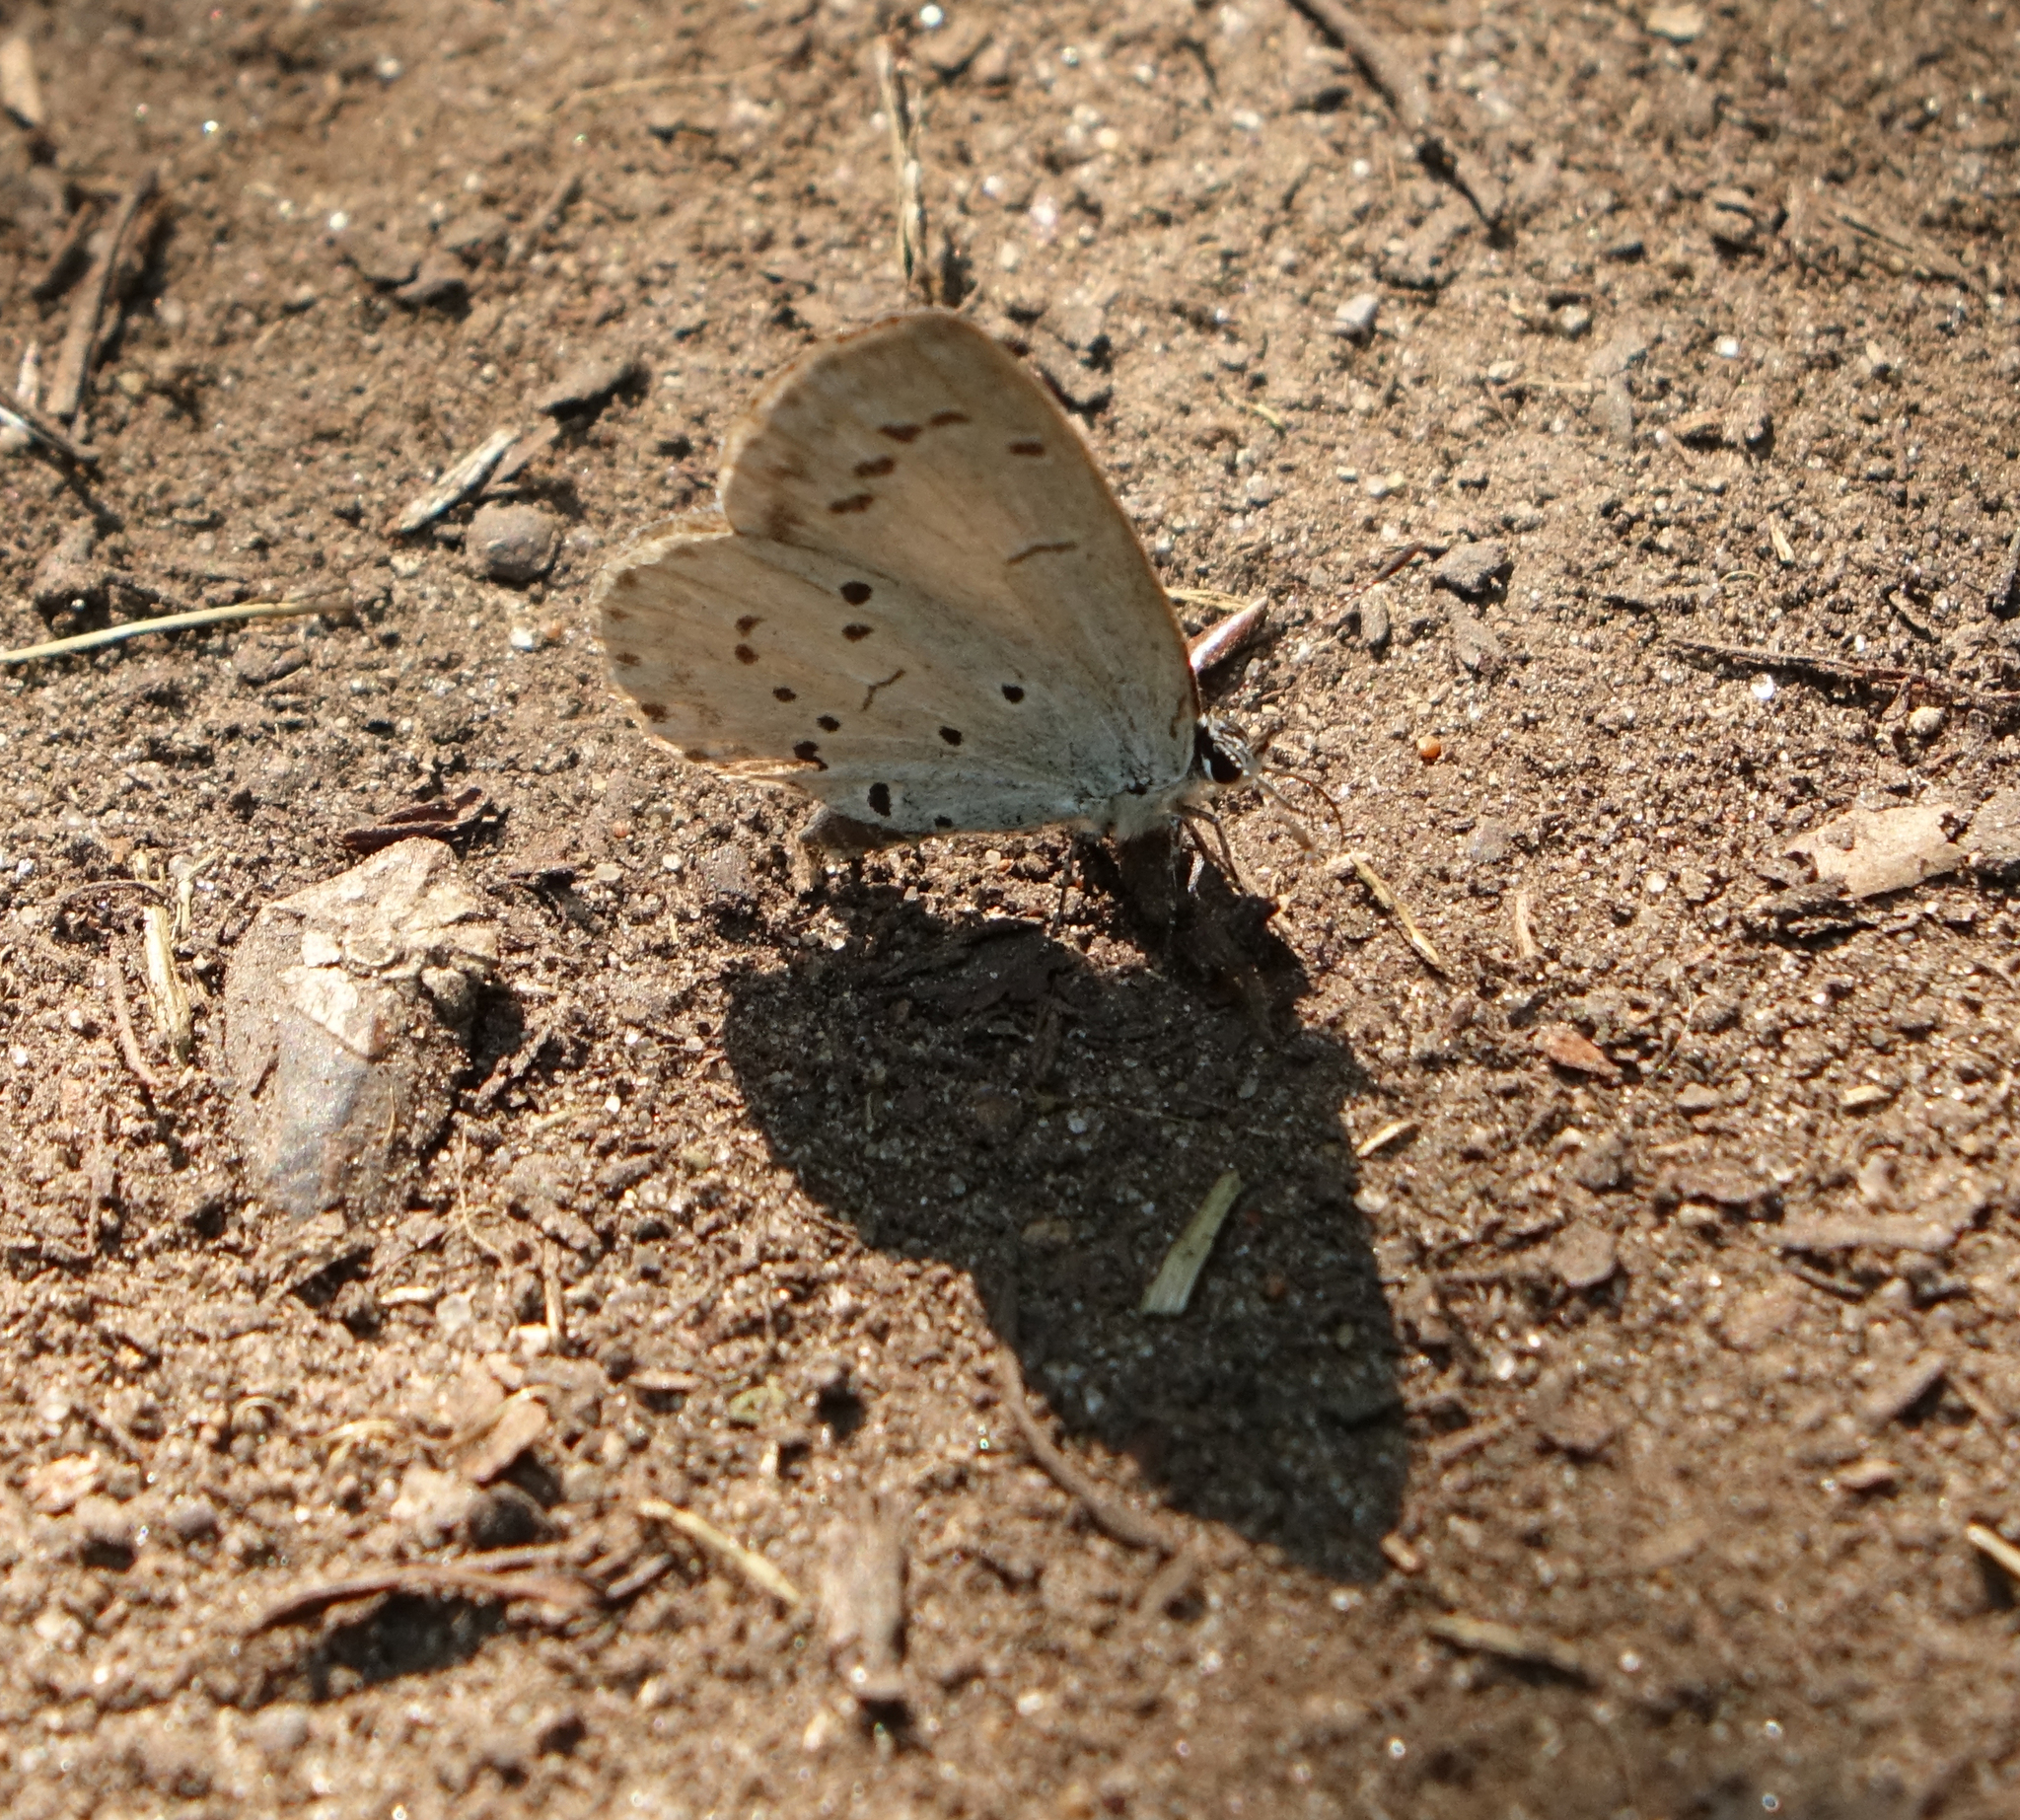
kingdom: Animalia
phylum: Arthropoda
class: Insecta
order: Lepidoptera
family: Lycaenidae
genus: Celastrina
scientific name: Celastrina argiolus
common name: Holly blue
